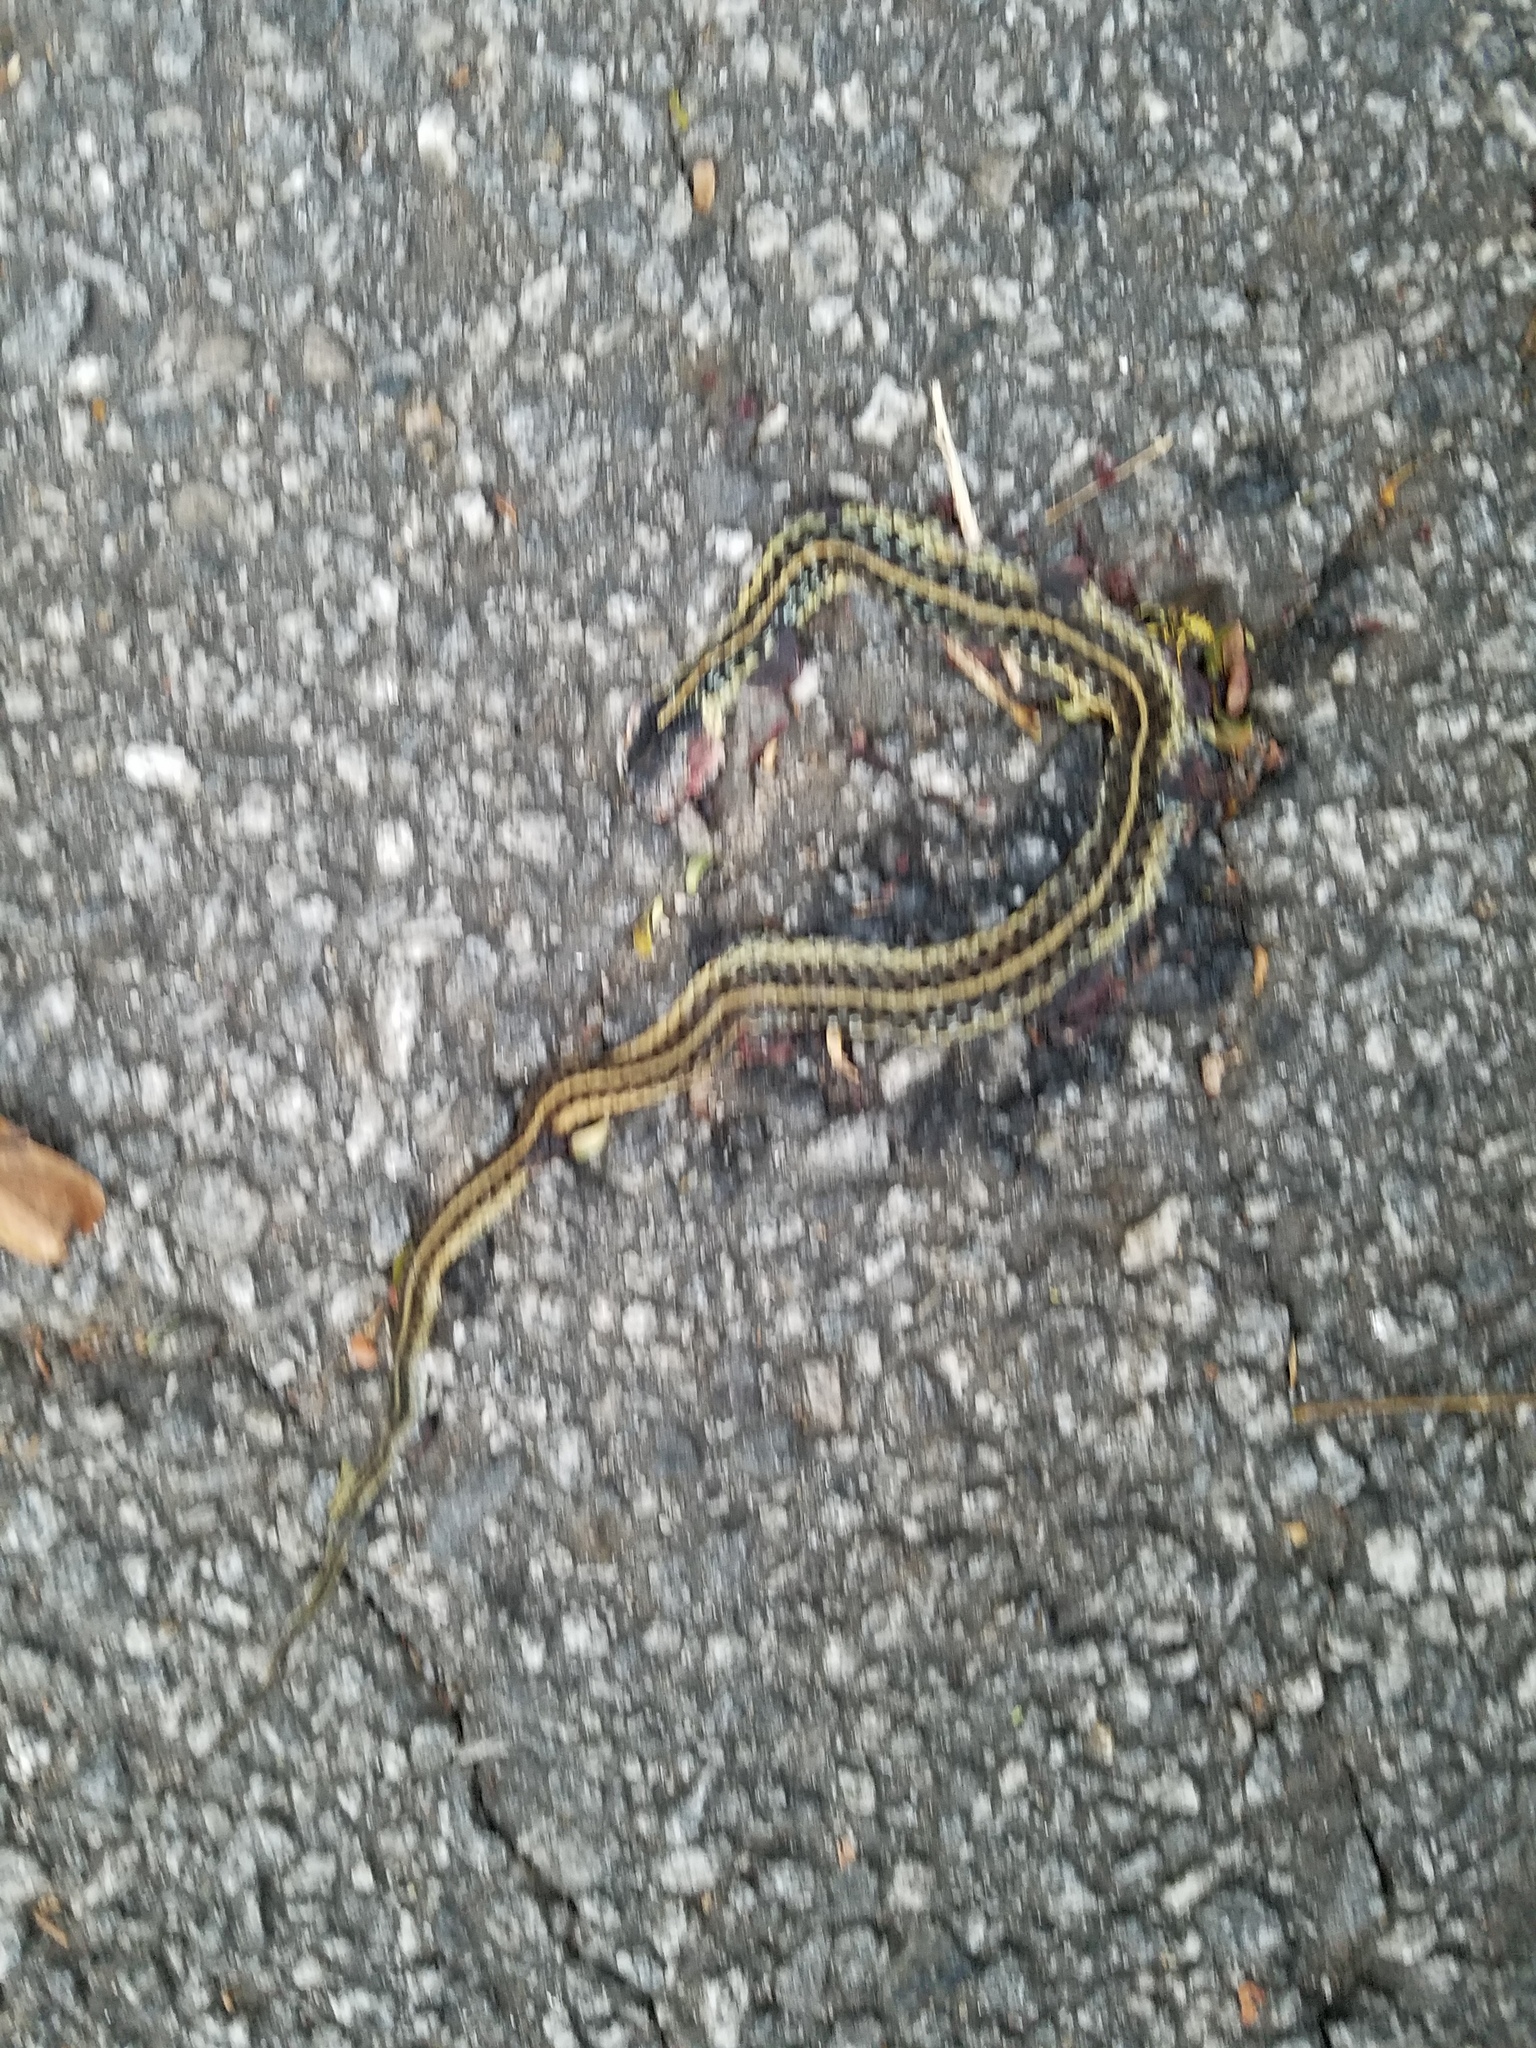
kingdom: Animalia
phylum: Chordata
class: Squamata
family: Colubridae
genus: Thamnophis
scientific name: Thamnophis sirtalis
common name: Common garter snake
